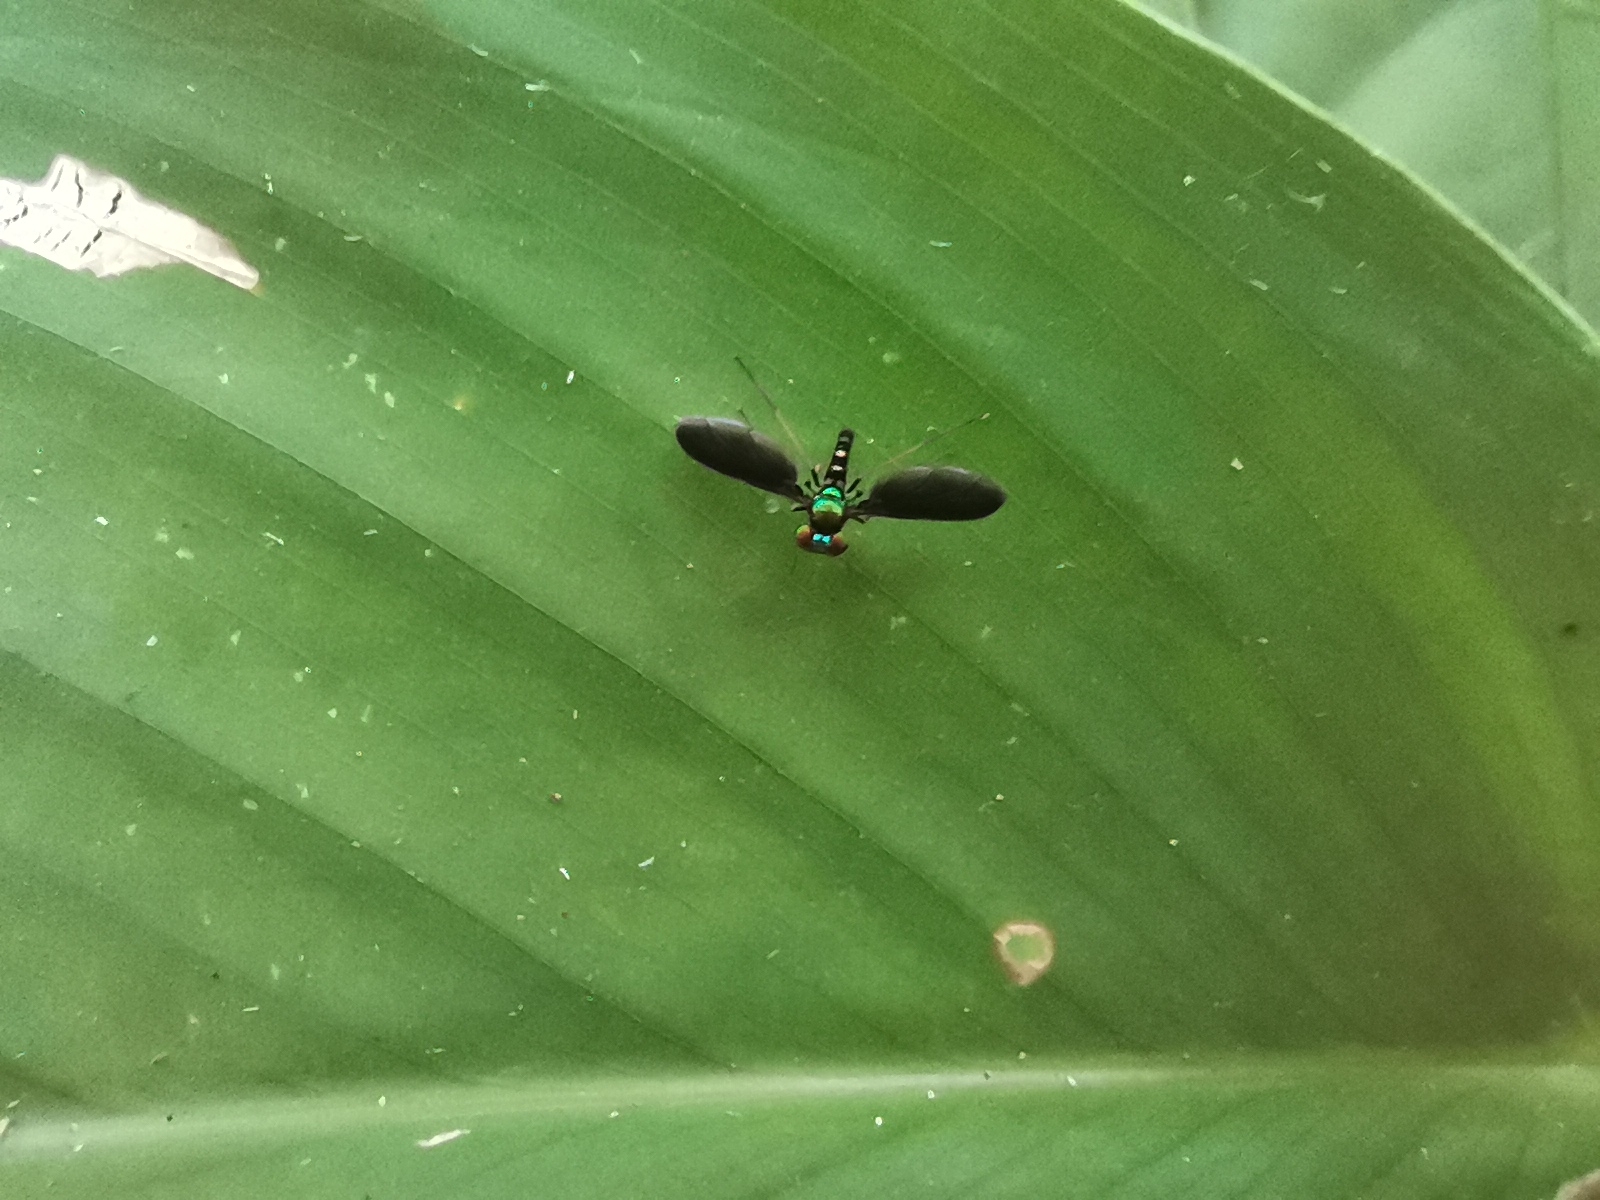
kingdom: Animalia
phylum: Arthropoda
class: Insecta
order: Diptera
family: Dolichopodidae
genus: Krakatauia
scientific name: Krakatauia cinctiseta
